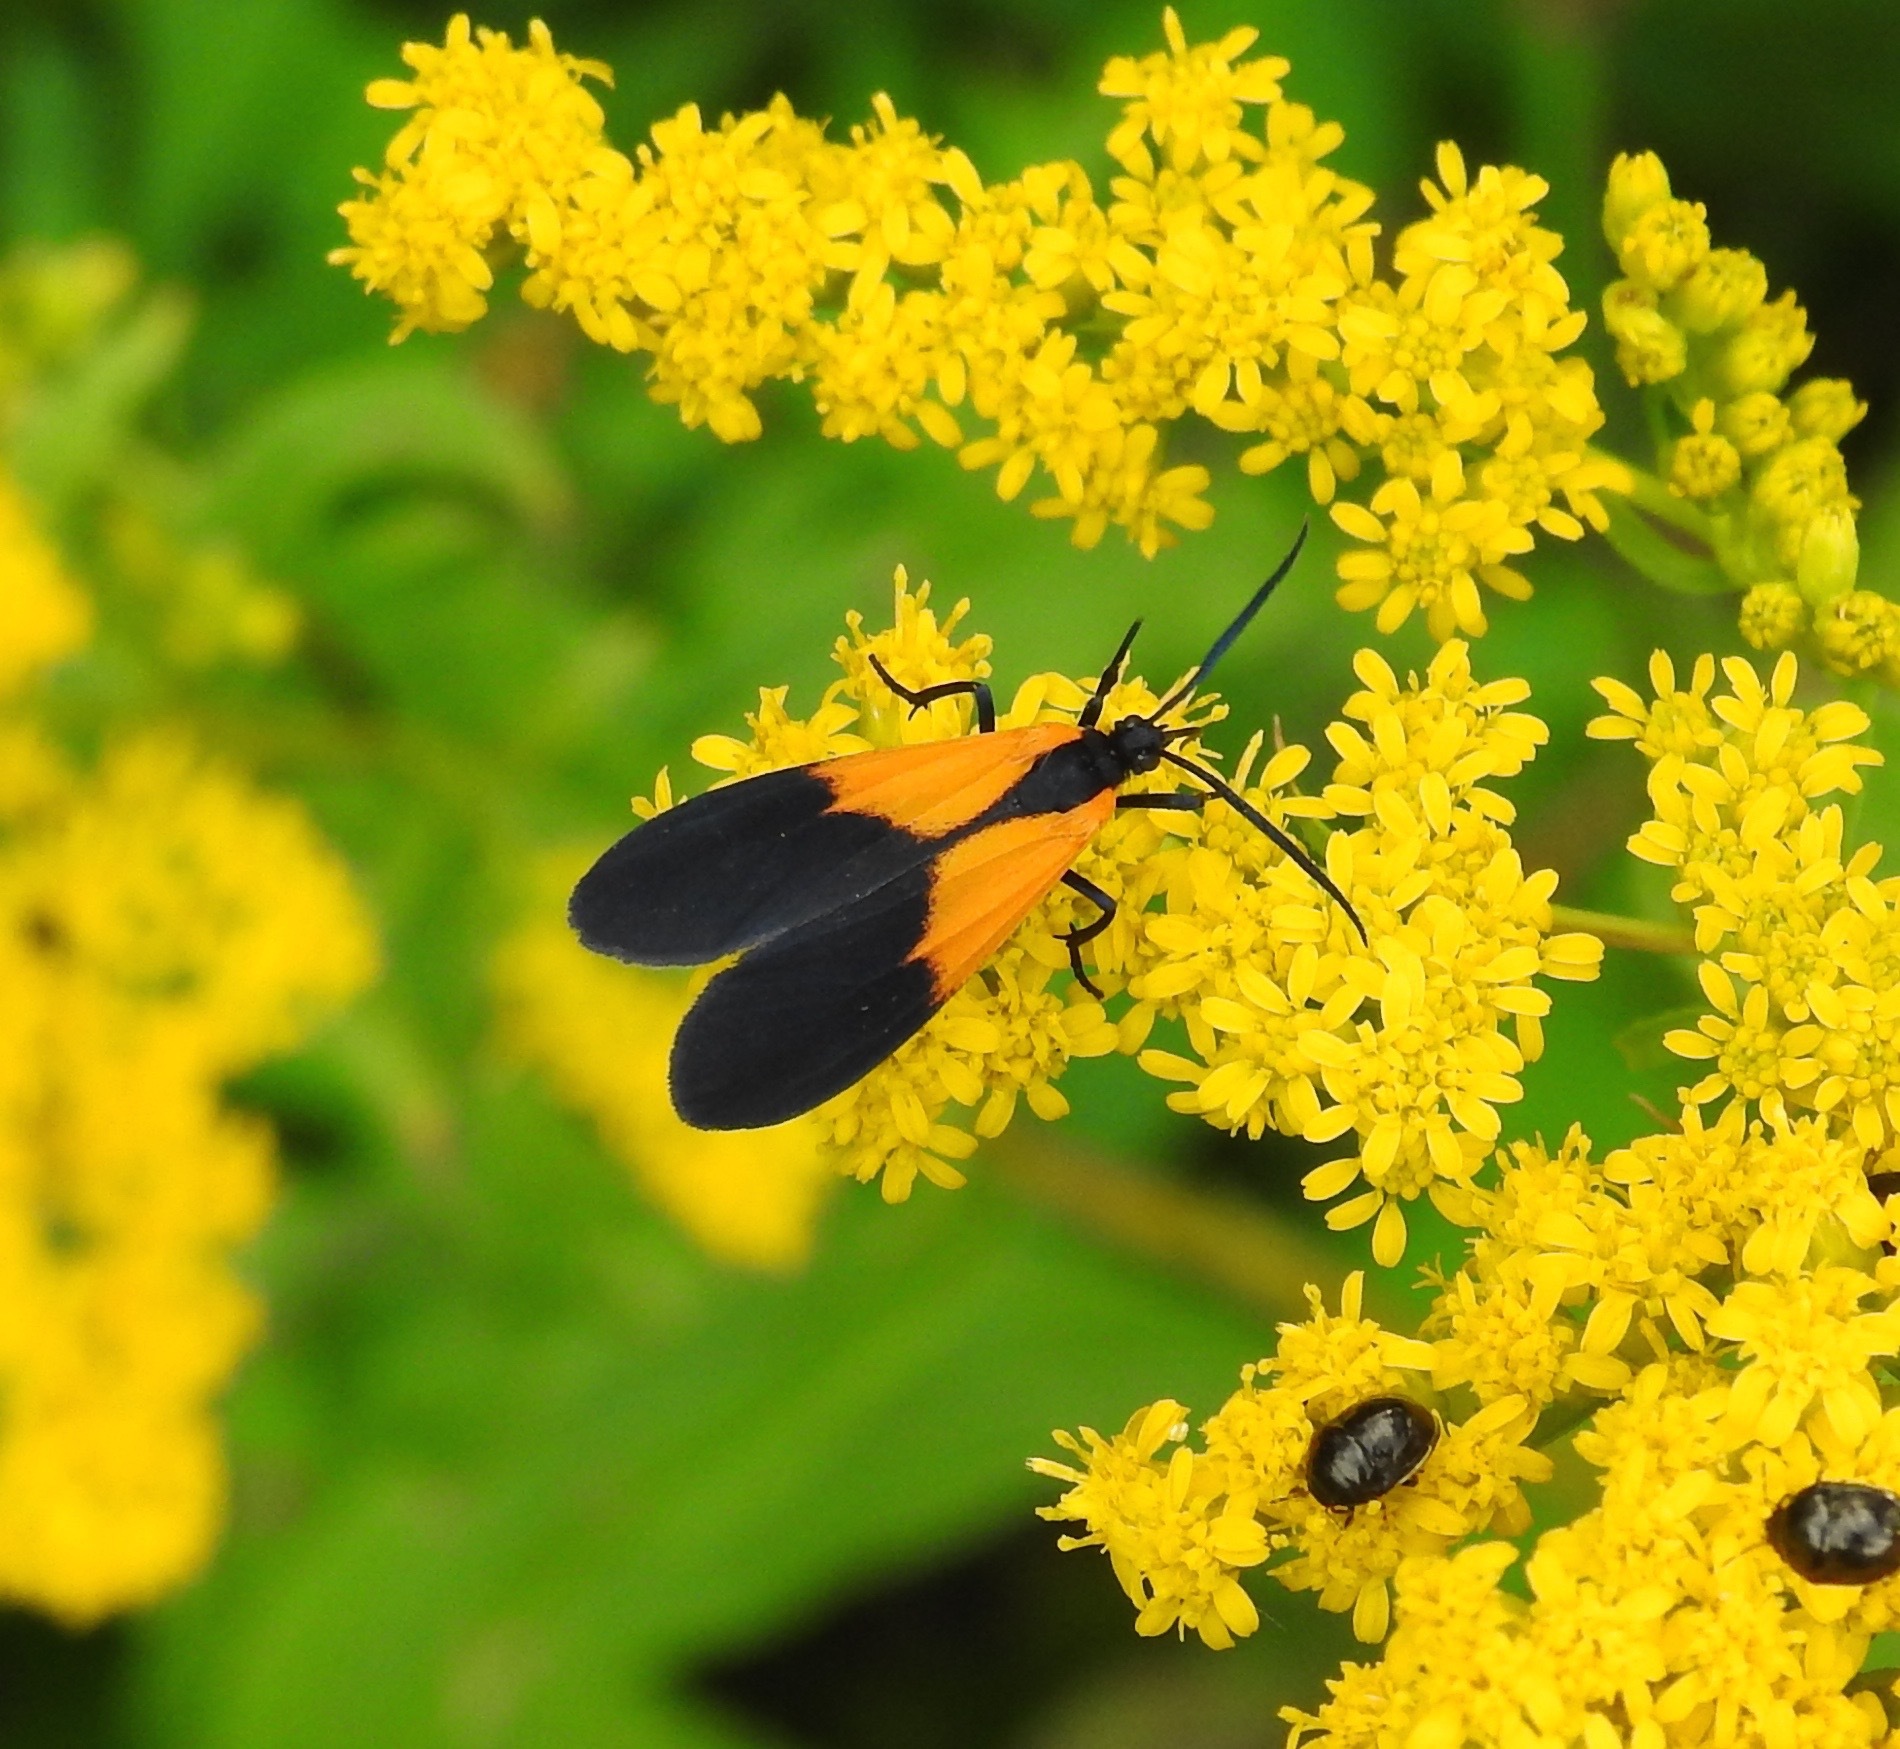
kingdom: Animalia
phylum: Arthropoda
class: Insecta
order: Lepidoptera
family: Erebidae
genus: Lycomorpha
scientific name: Lycomorpha pholus
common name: Black-and-yellow lichen moth
